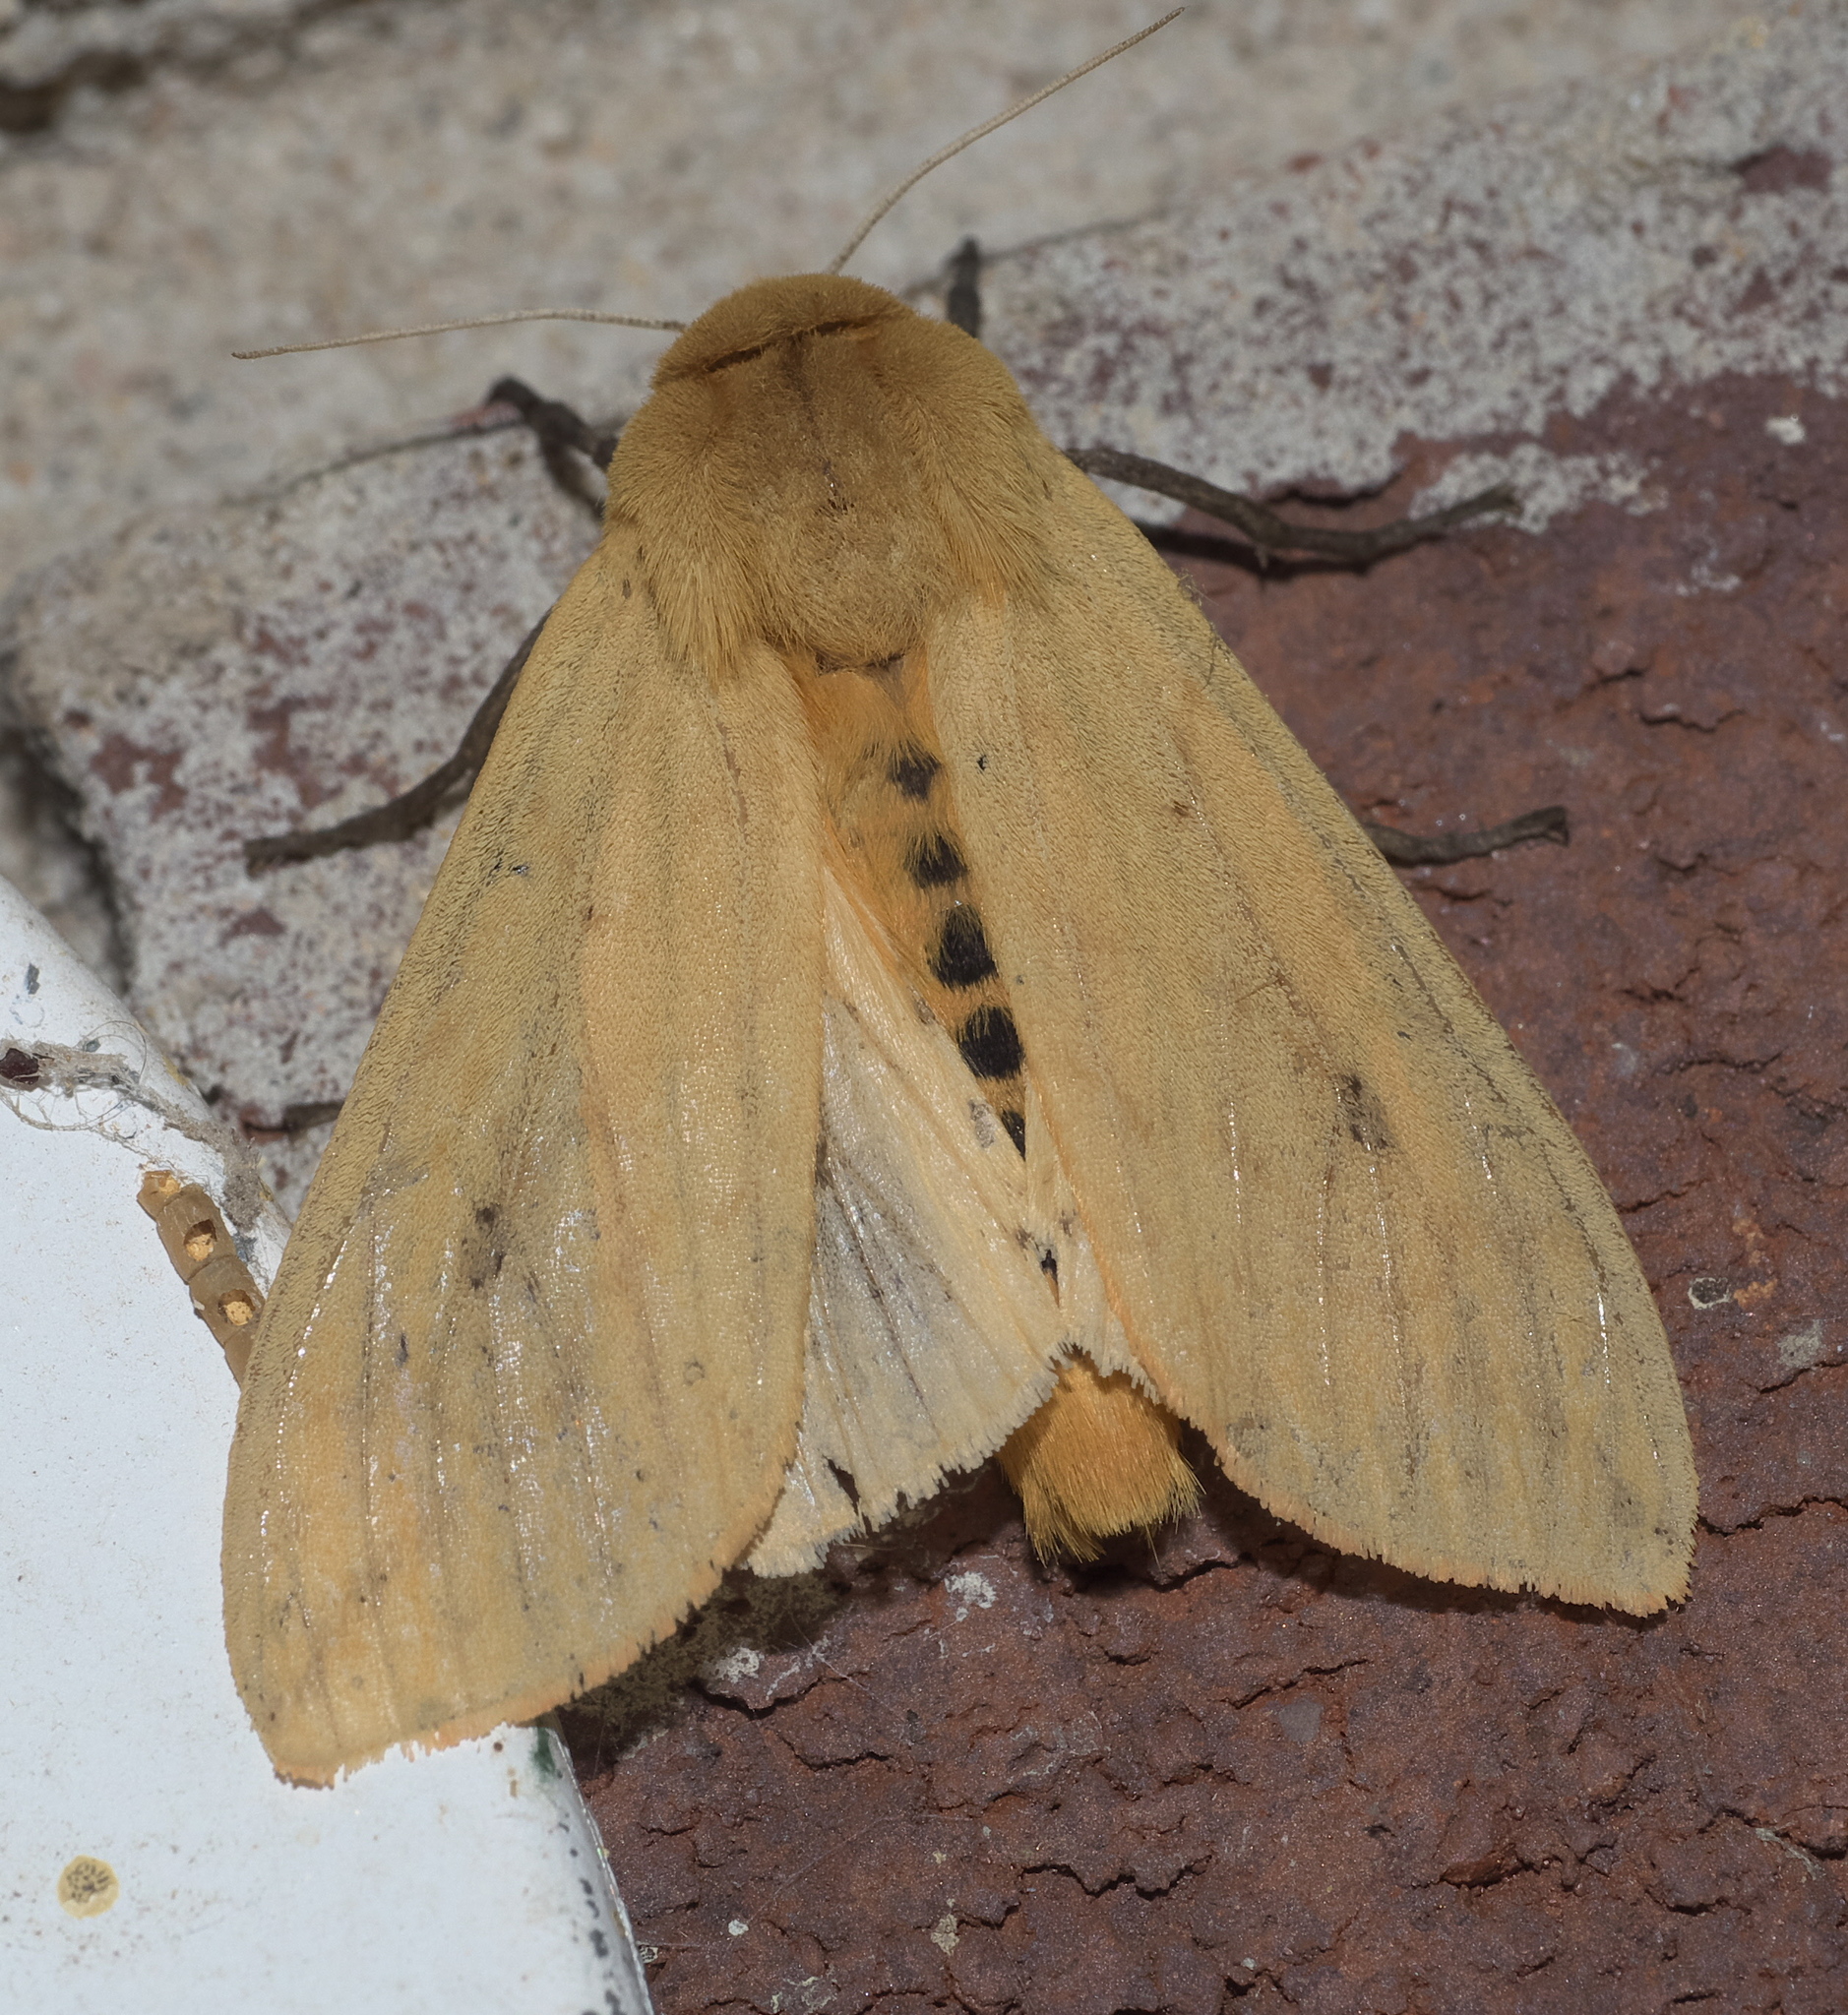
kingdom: Animalia
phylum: Arthropoda
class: Insecta
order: Lepidoptera
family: Erebidae
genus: Pyrrharctia
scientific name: Pyrrharctia isabella
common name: Isabella tiger moth
